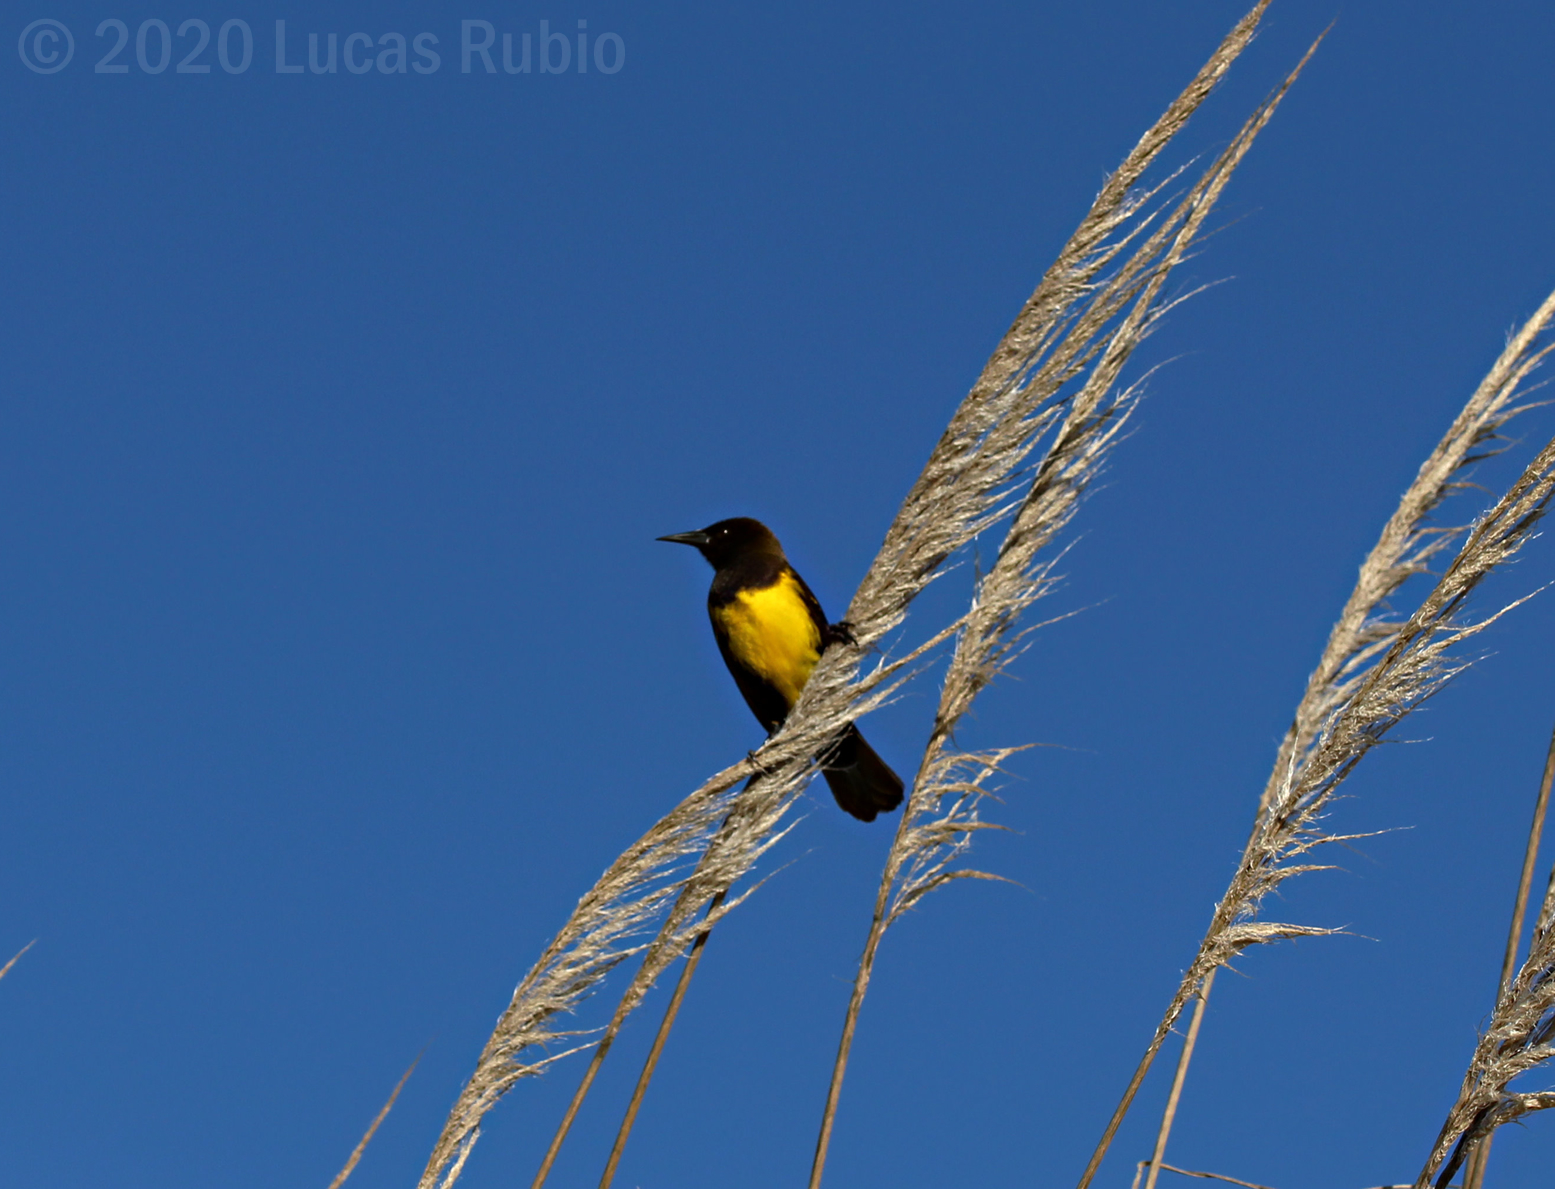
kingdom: Animalia
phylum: Chordata
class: Aves
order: Passeriformes
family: Icteridae
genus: Pseudoleistes
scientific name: Pseudoleistes virescens
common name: Brown-and-yellow marshbird
